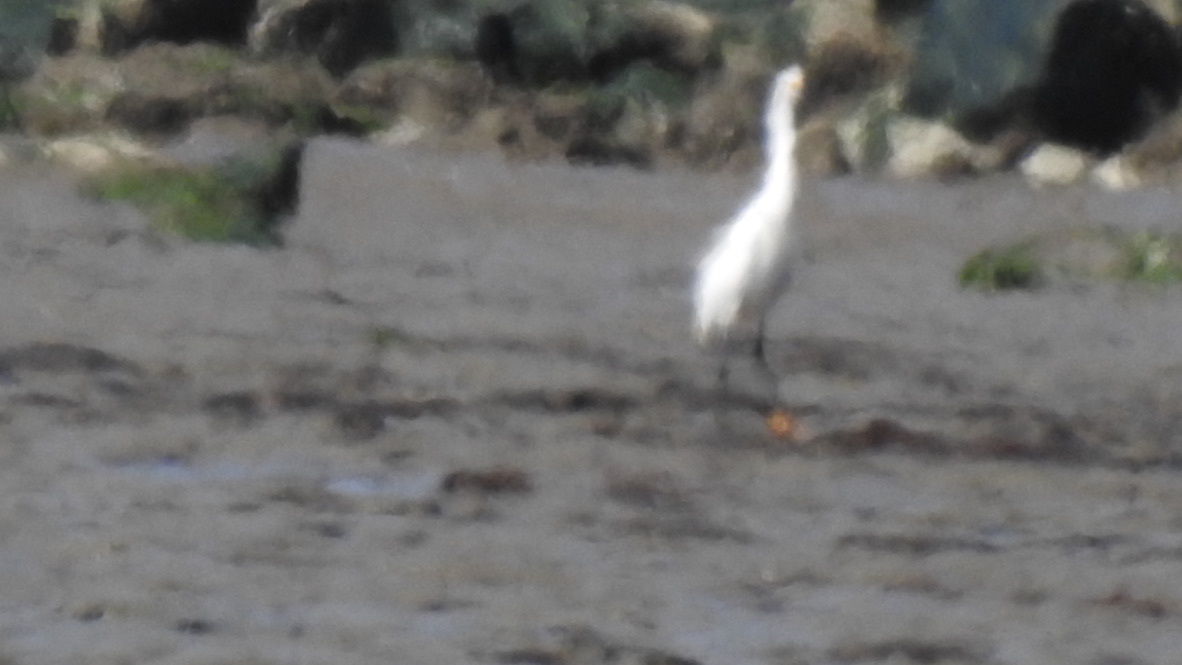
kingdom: Animalia
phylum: Chordata
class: Aves
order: Pelecaniformes
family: Ardeidae
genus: Egretta
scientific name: Egretta thula
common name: Snowy egret
